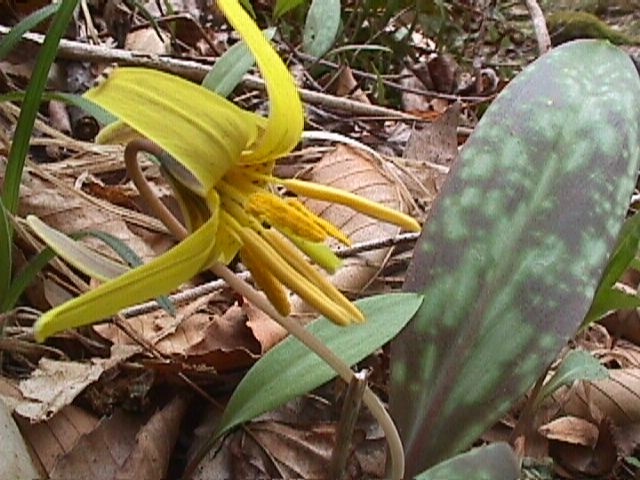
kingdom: Plantae
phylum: Tracheophyta
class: Liliopsida
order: Liliales
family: Liliaceae
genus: Erythronium
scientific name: Erythronium americanum
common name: Yellow adder's-tongue
